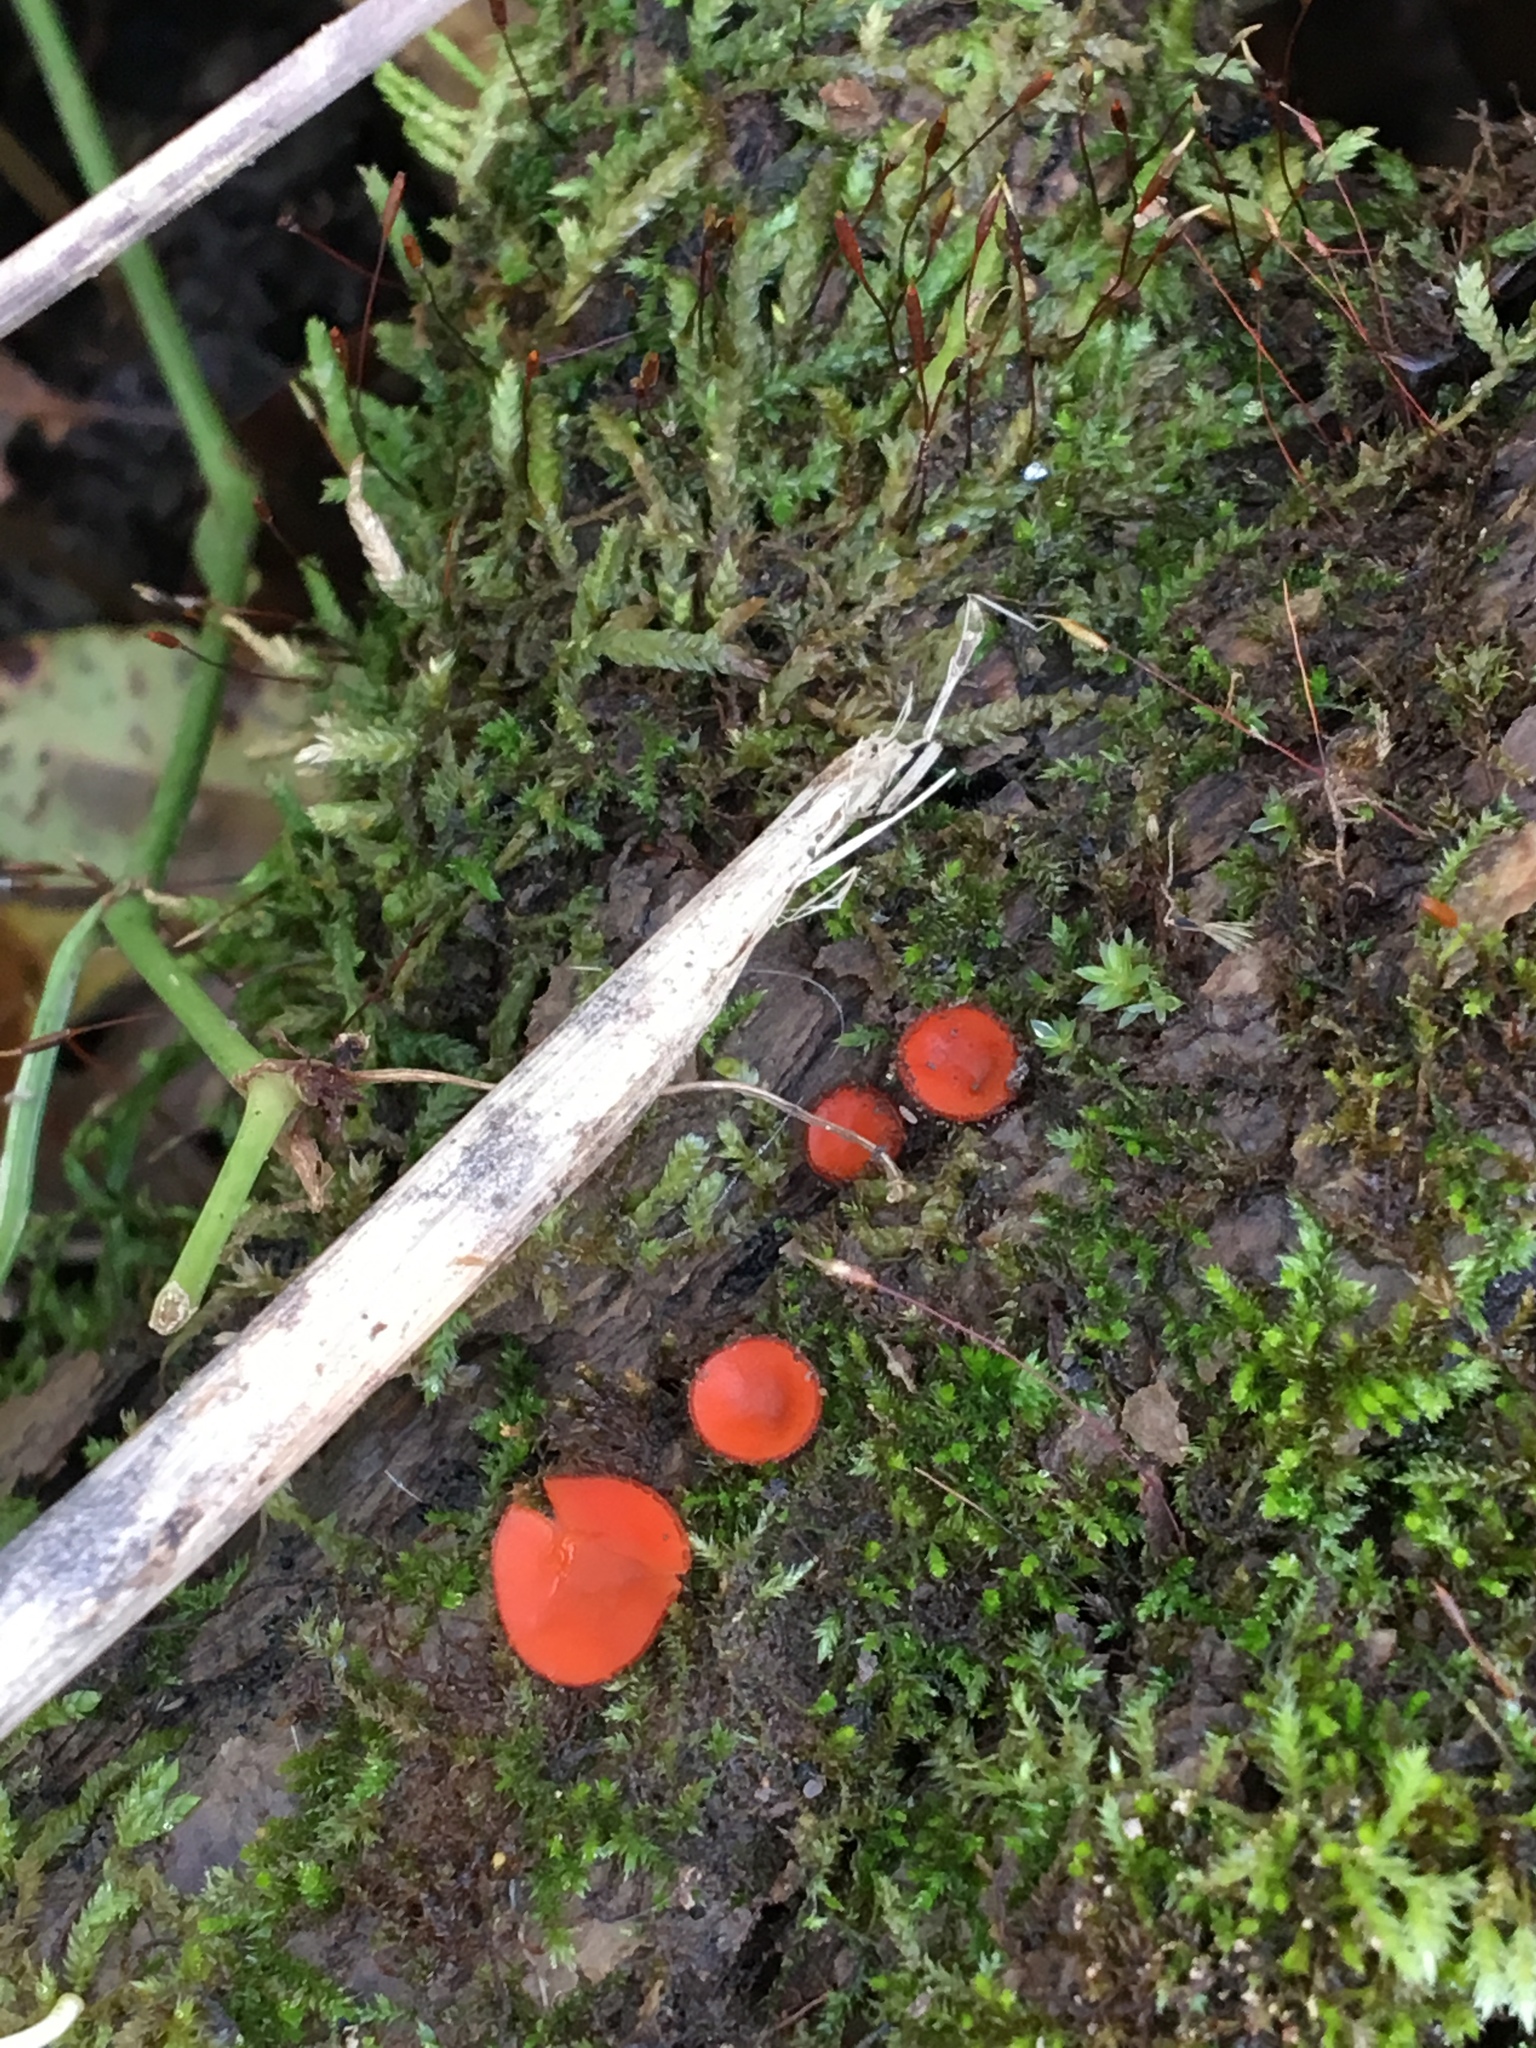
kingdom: Fungi
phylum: Ascomycota
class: Pezizomycetes
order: Pezizales
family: Pyronemataceae
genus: Scutellinia
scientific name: Scutellinia scutellata
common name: Common eyelash
